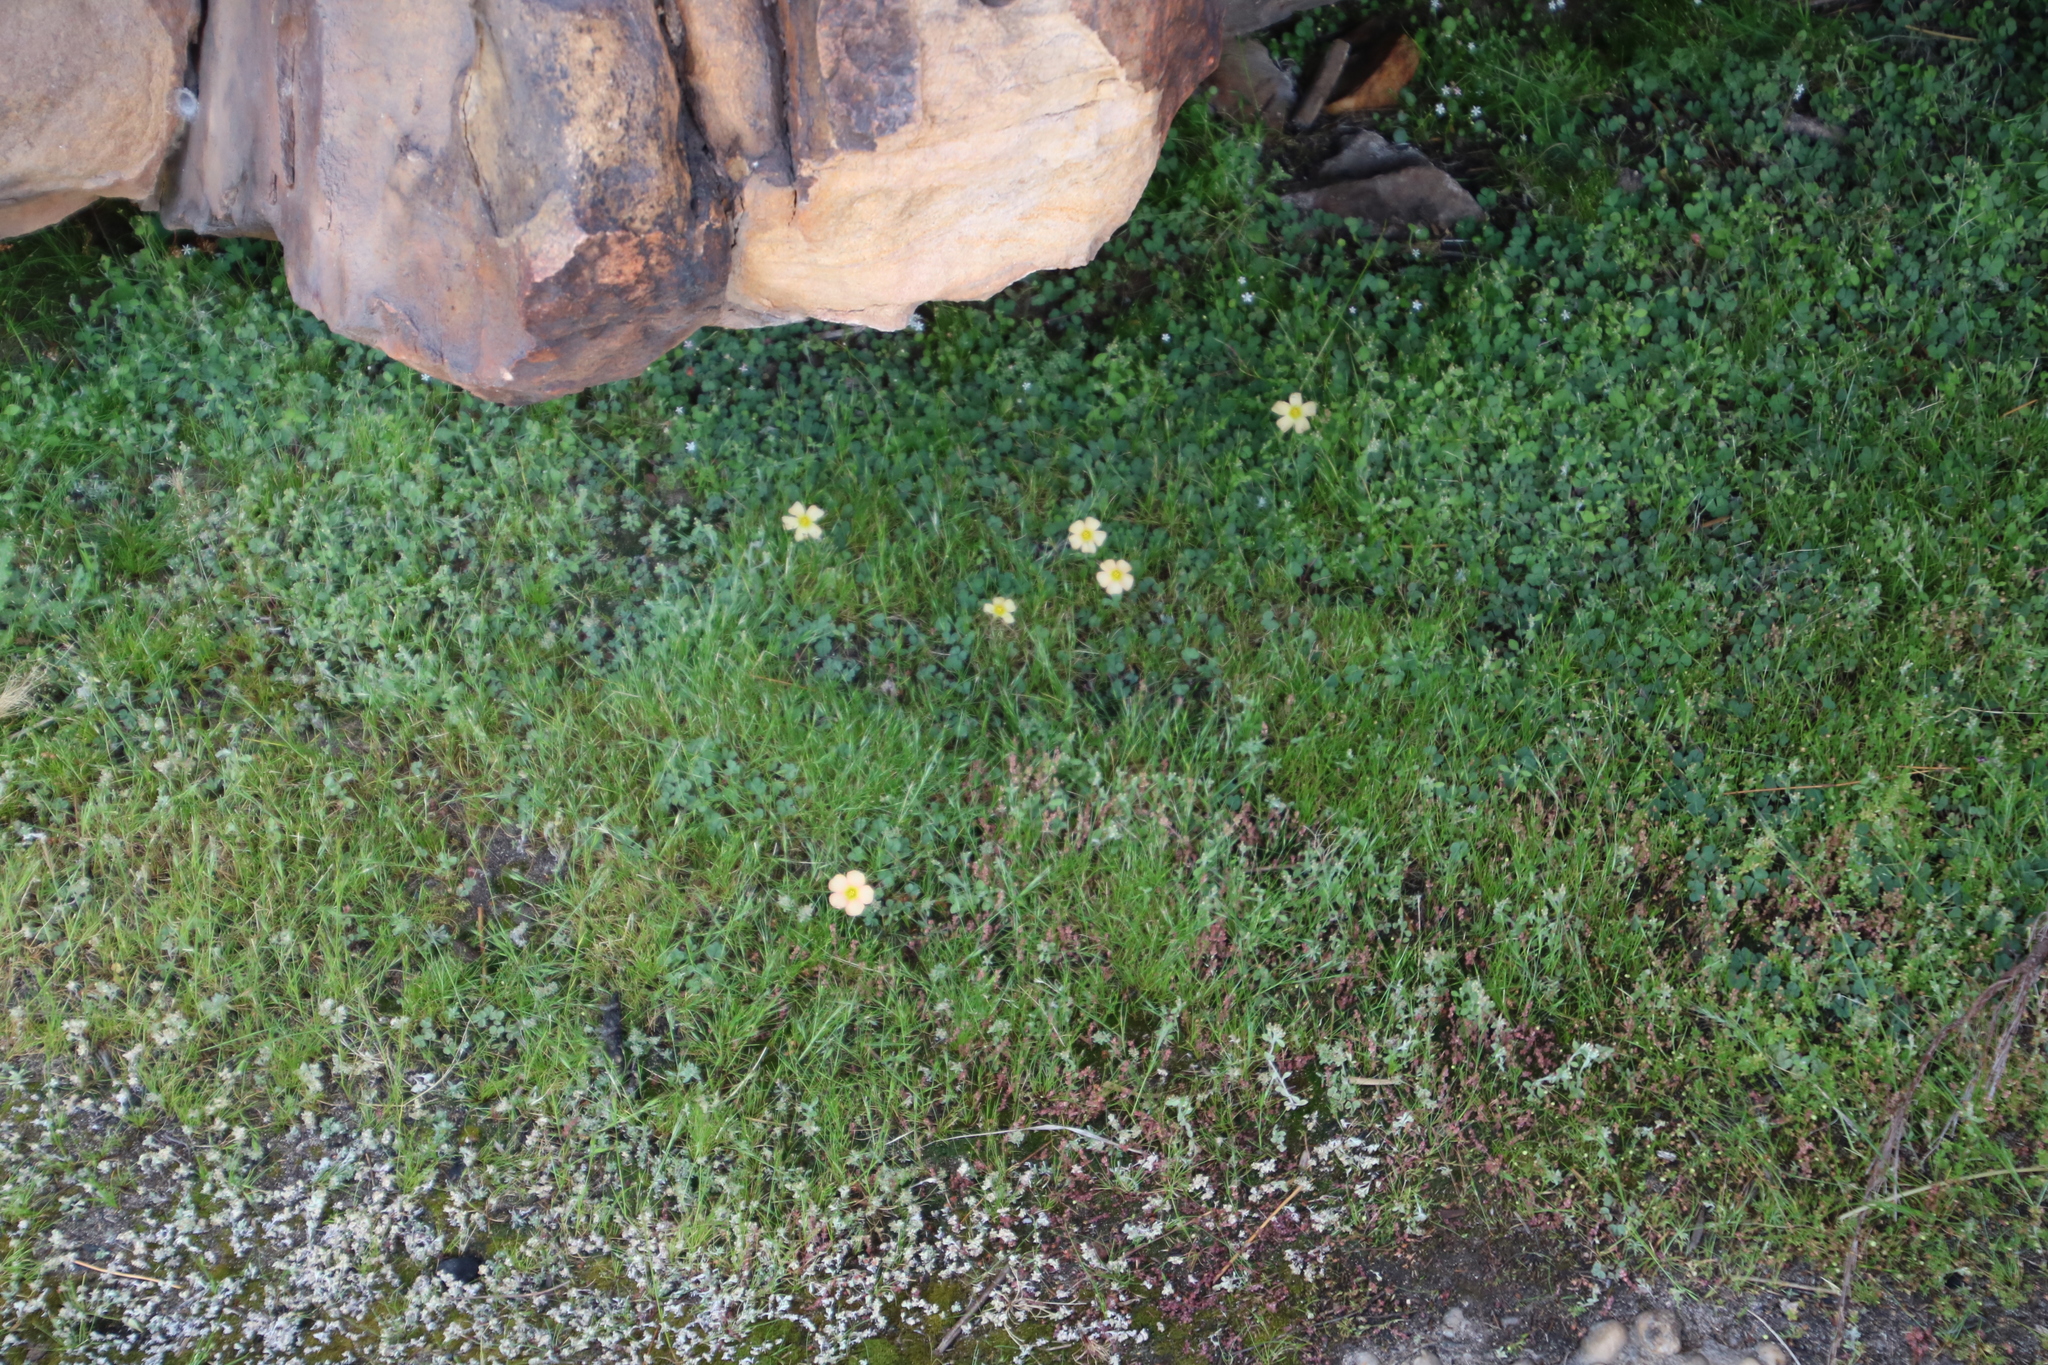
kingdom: Plantae
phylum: Tracheophyta
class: Magnoliopsida
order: Oxalidales
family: Oxalidaceae
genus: Oxalis
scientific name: Oxalis obtusa
